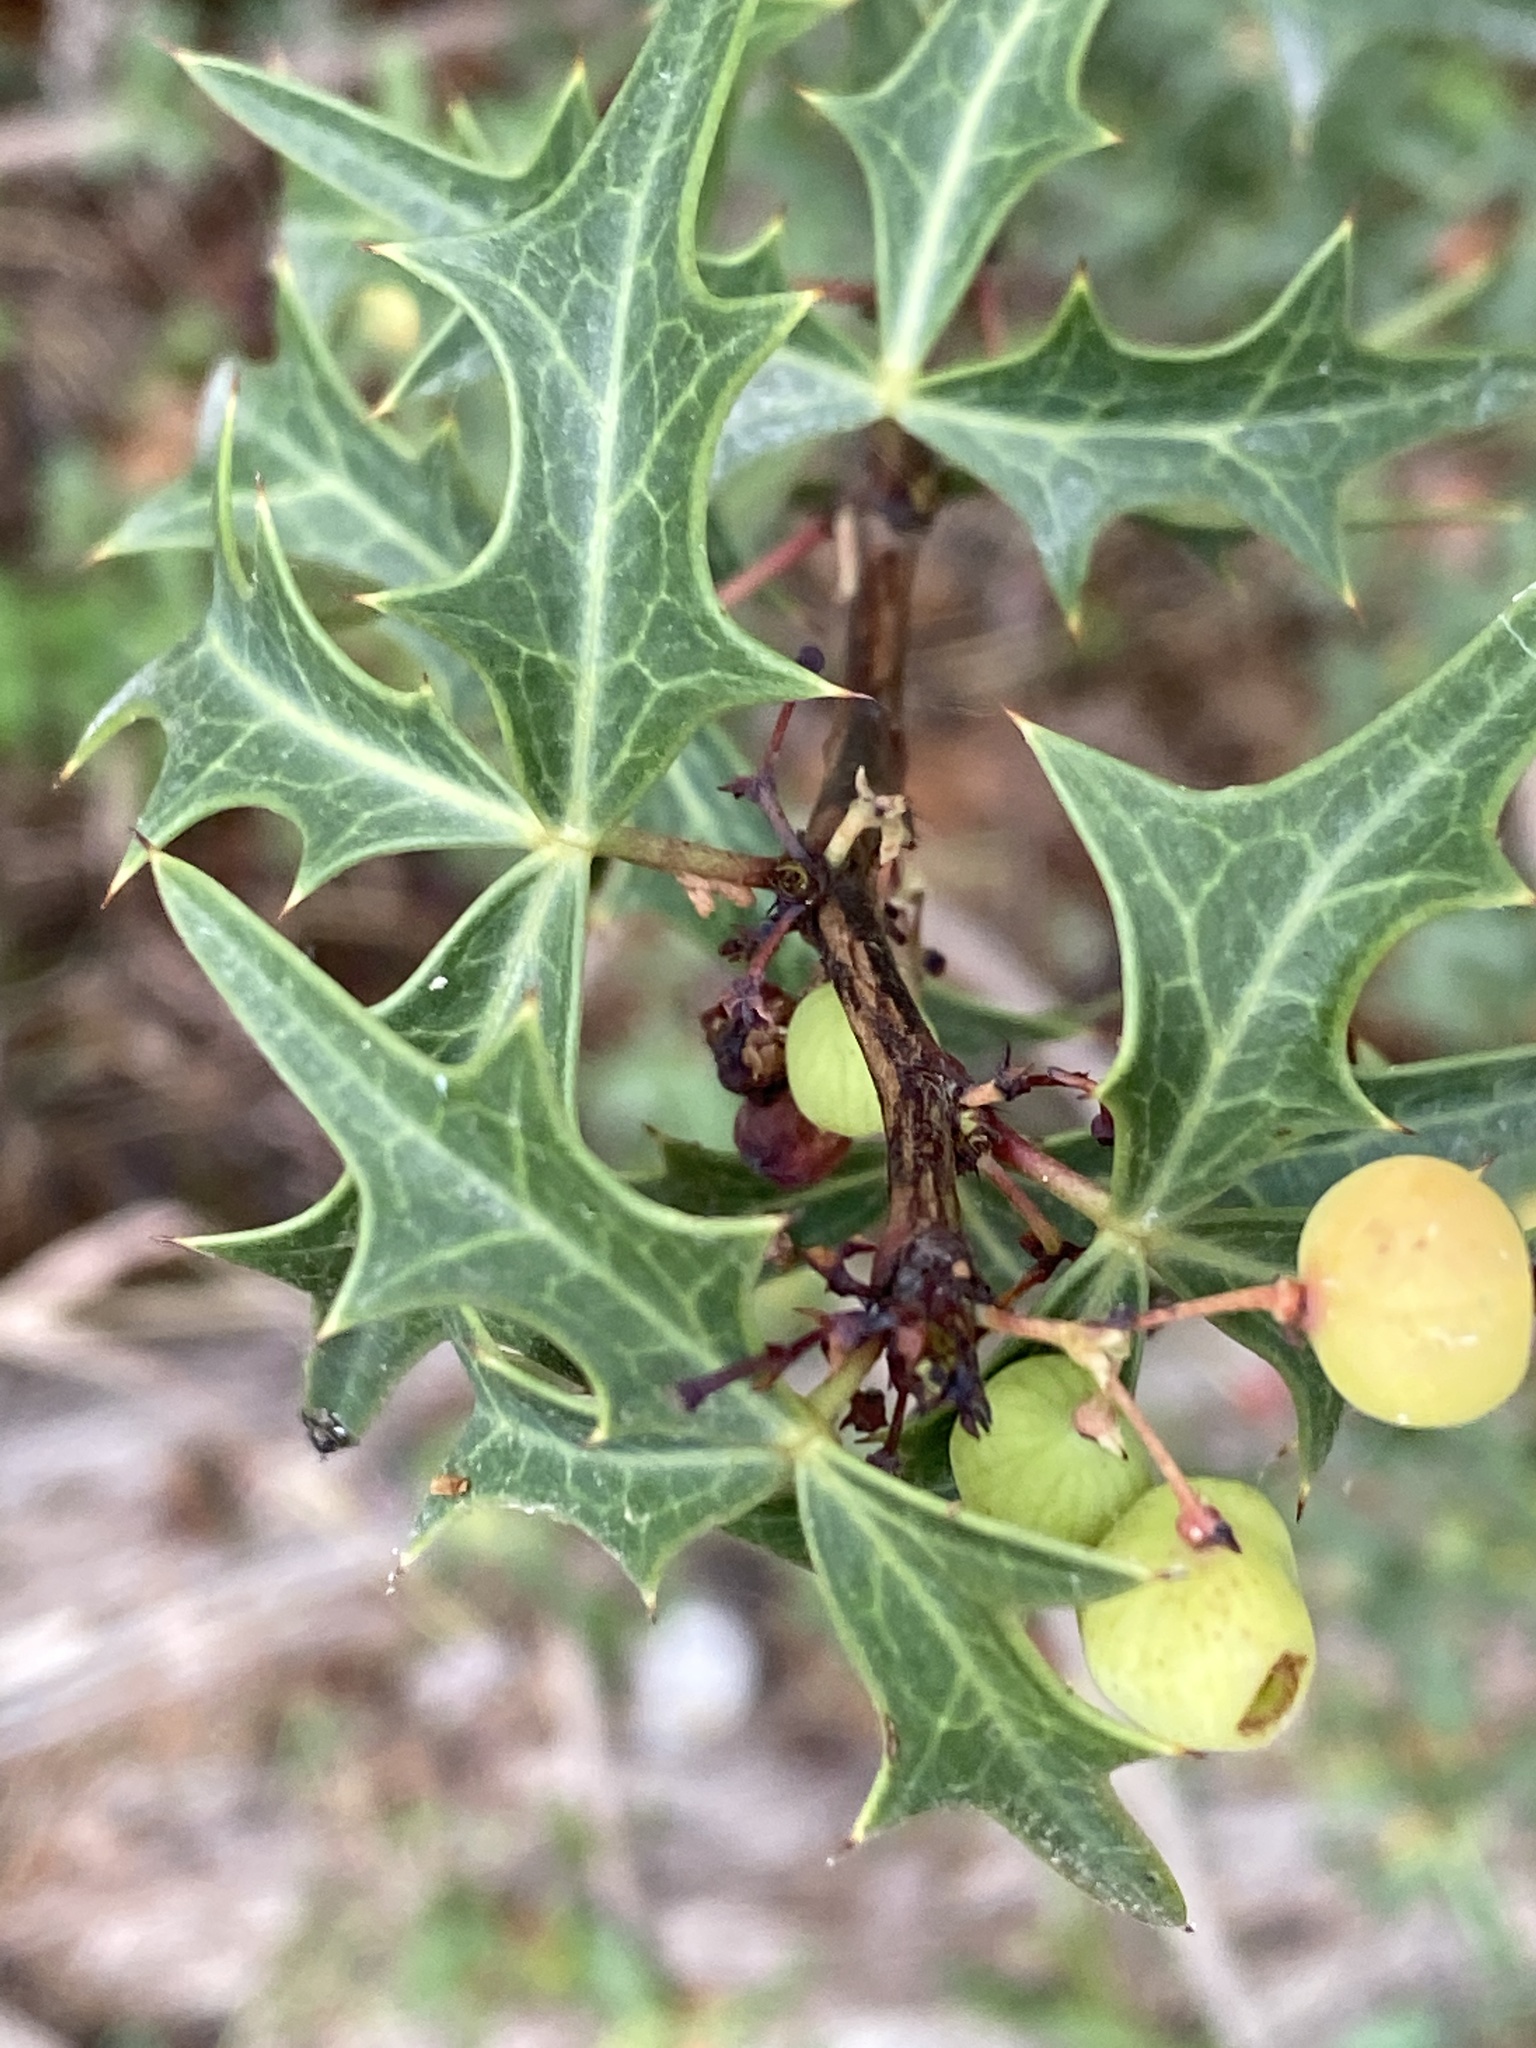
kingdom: Plantae
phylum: Tracheophyta
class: Magnoliopsida
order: Ranunculales
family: Berberidaceae
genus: Alloberberis
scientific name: Alloberberis trifoliolata
